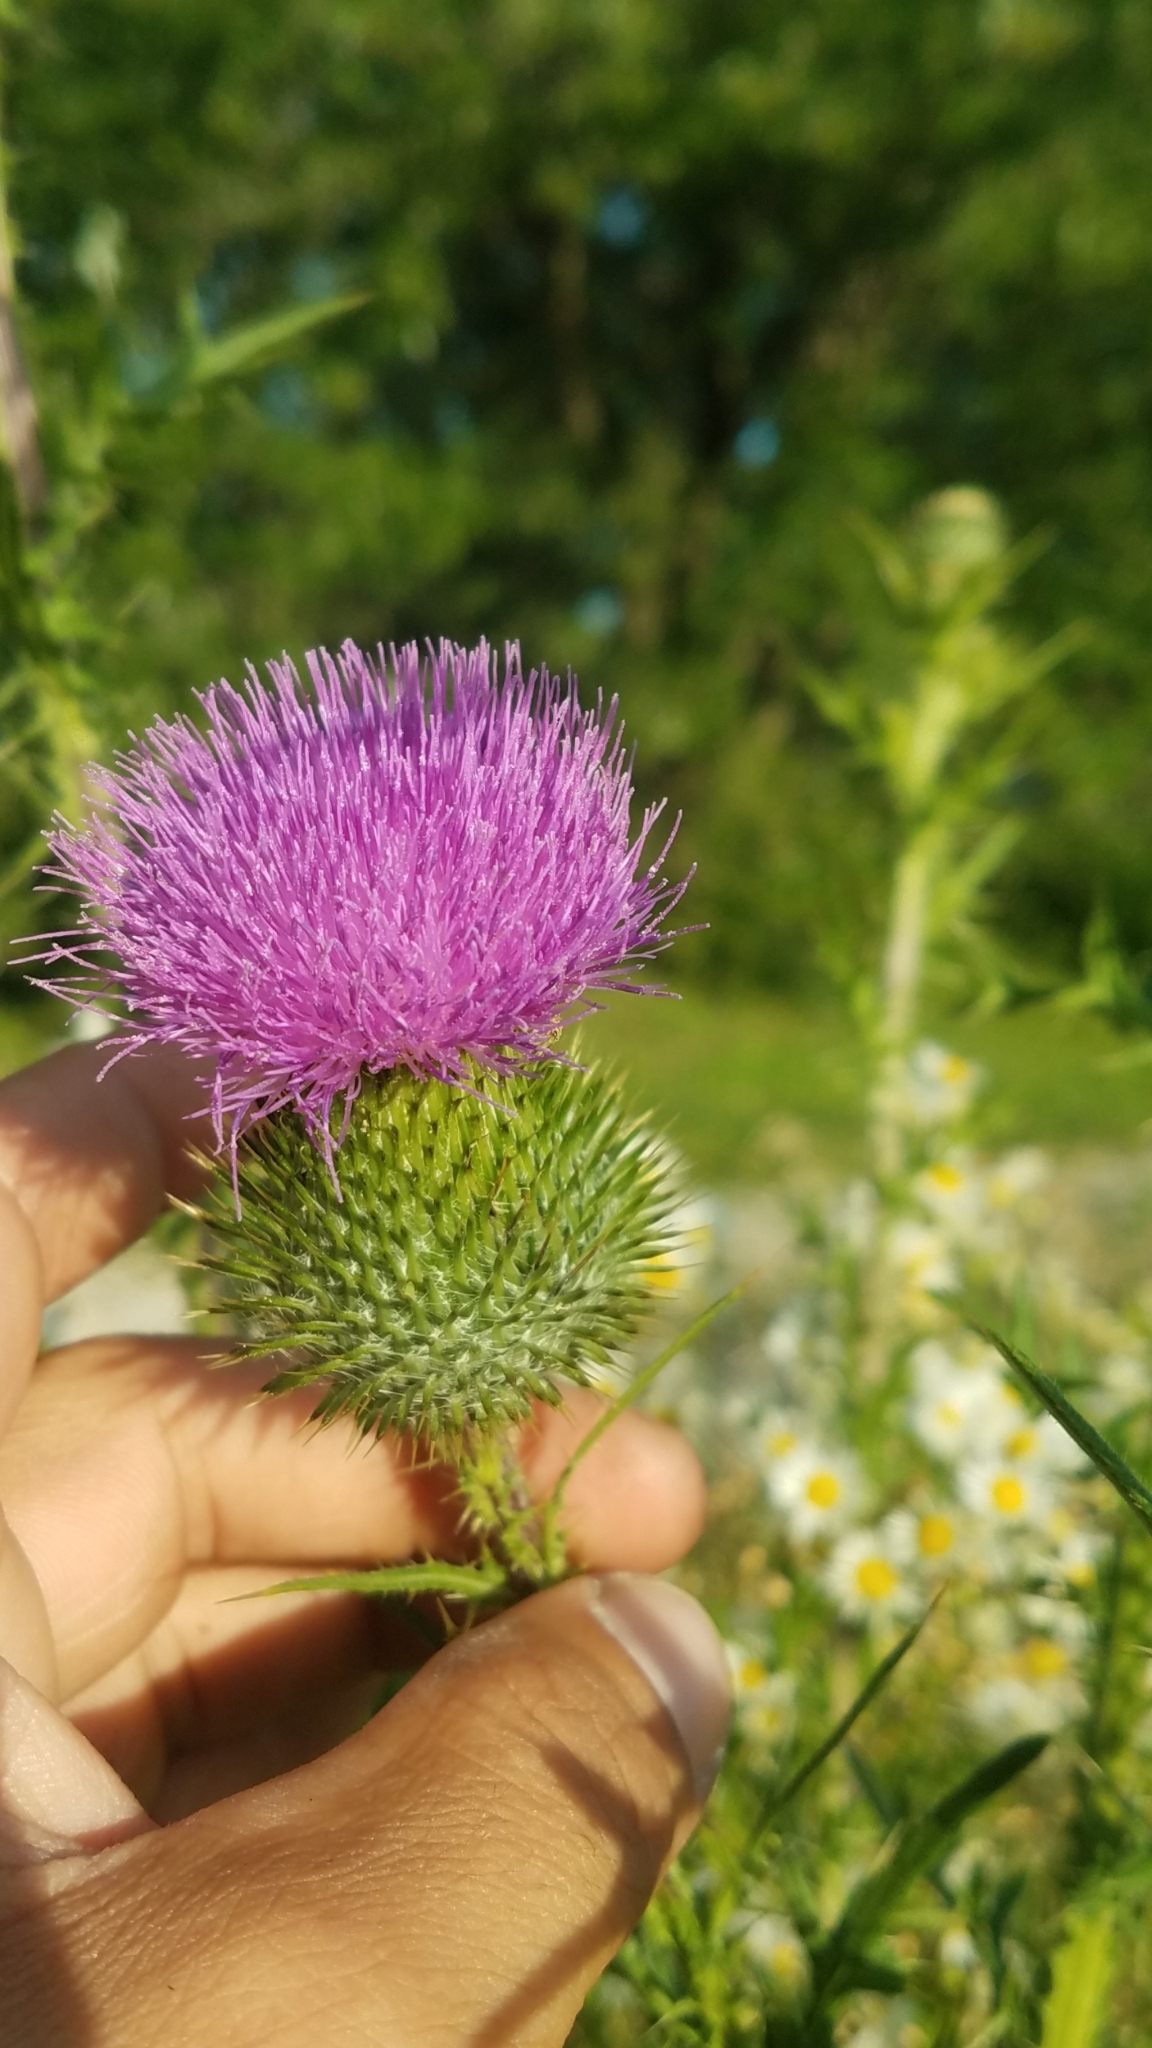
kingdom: Plantae
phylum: Tracheophyta
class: Magnoliopsida
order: Asterales
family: Asteraceae
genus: Cirsium
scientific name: Cirsium vulgare
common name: Bull thistle
